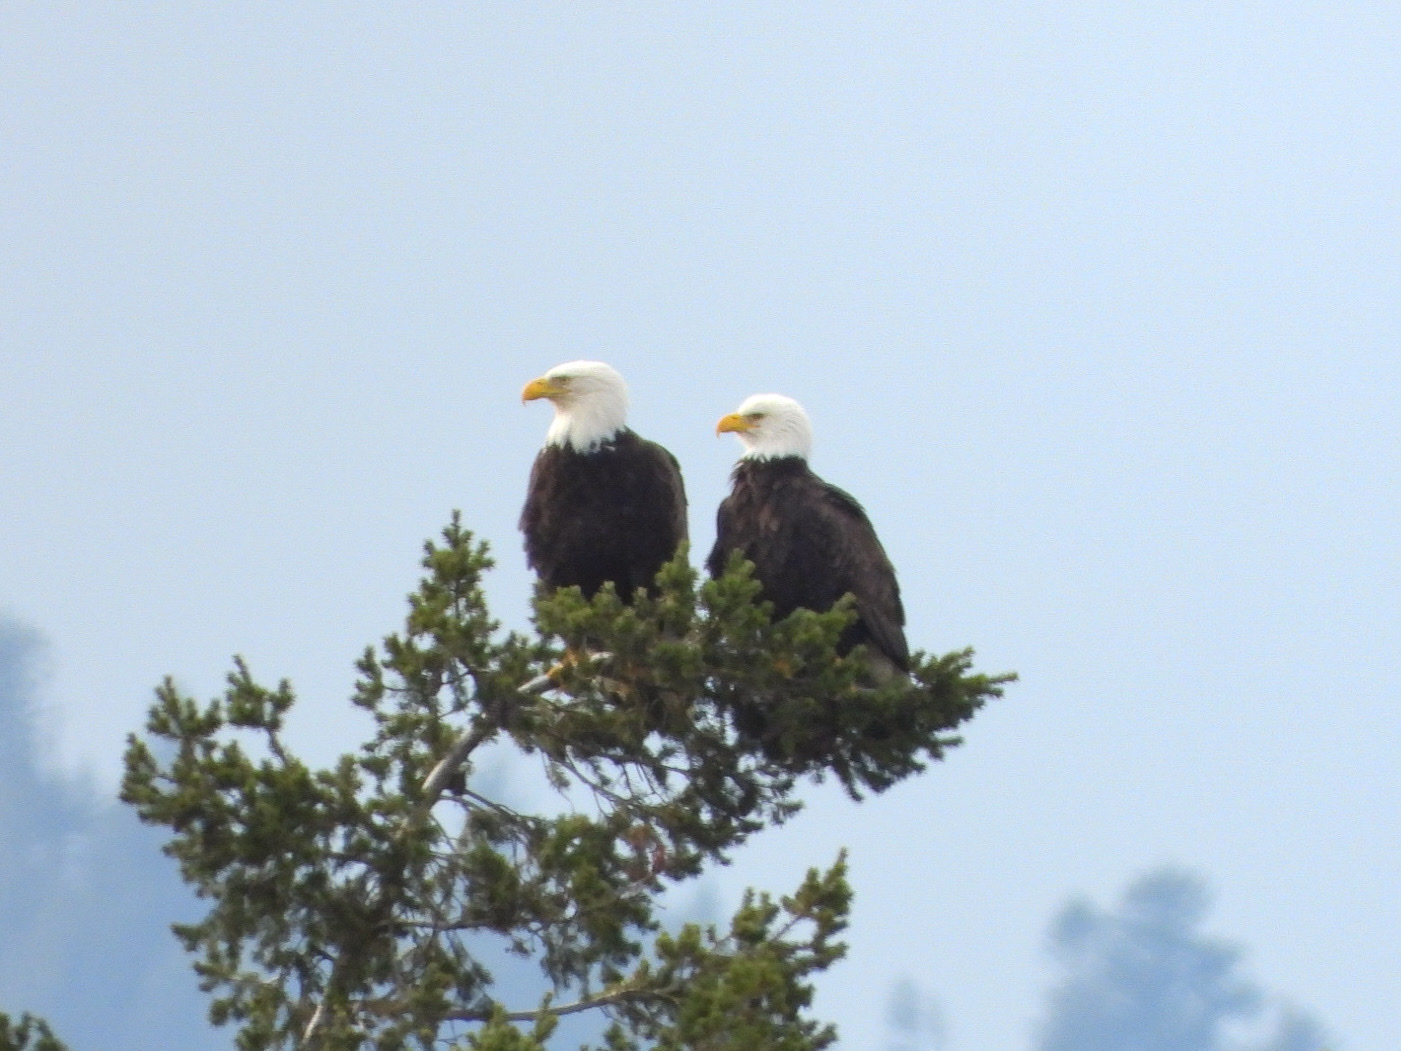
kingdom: Animalia
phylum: Chordata
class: Aves
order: Accipitriformes
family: Accipitridae
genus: Haliaeetus
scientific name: Haliaeetus leucocephalus
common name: Bald eagle
